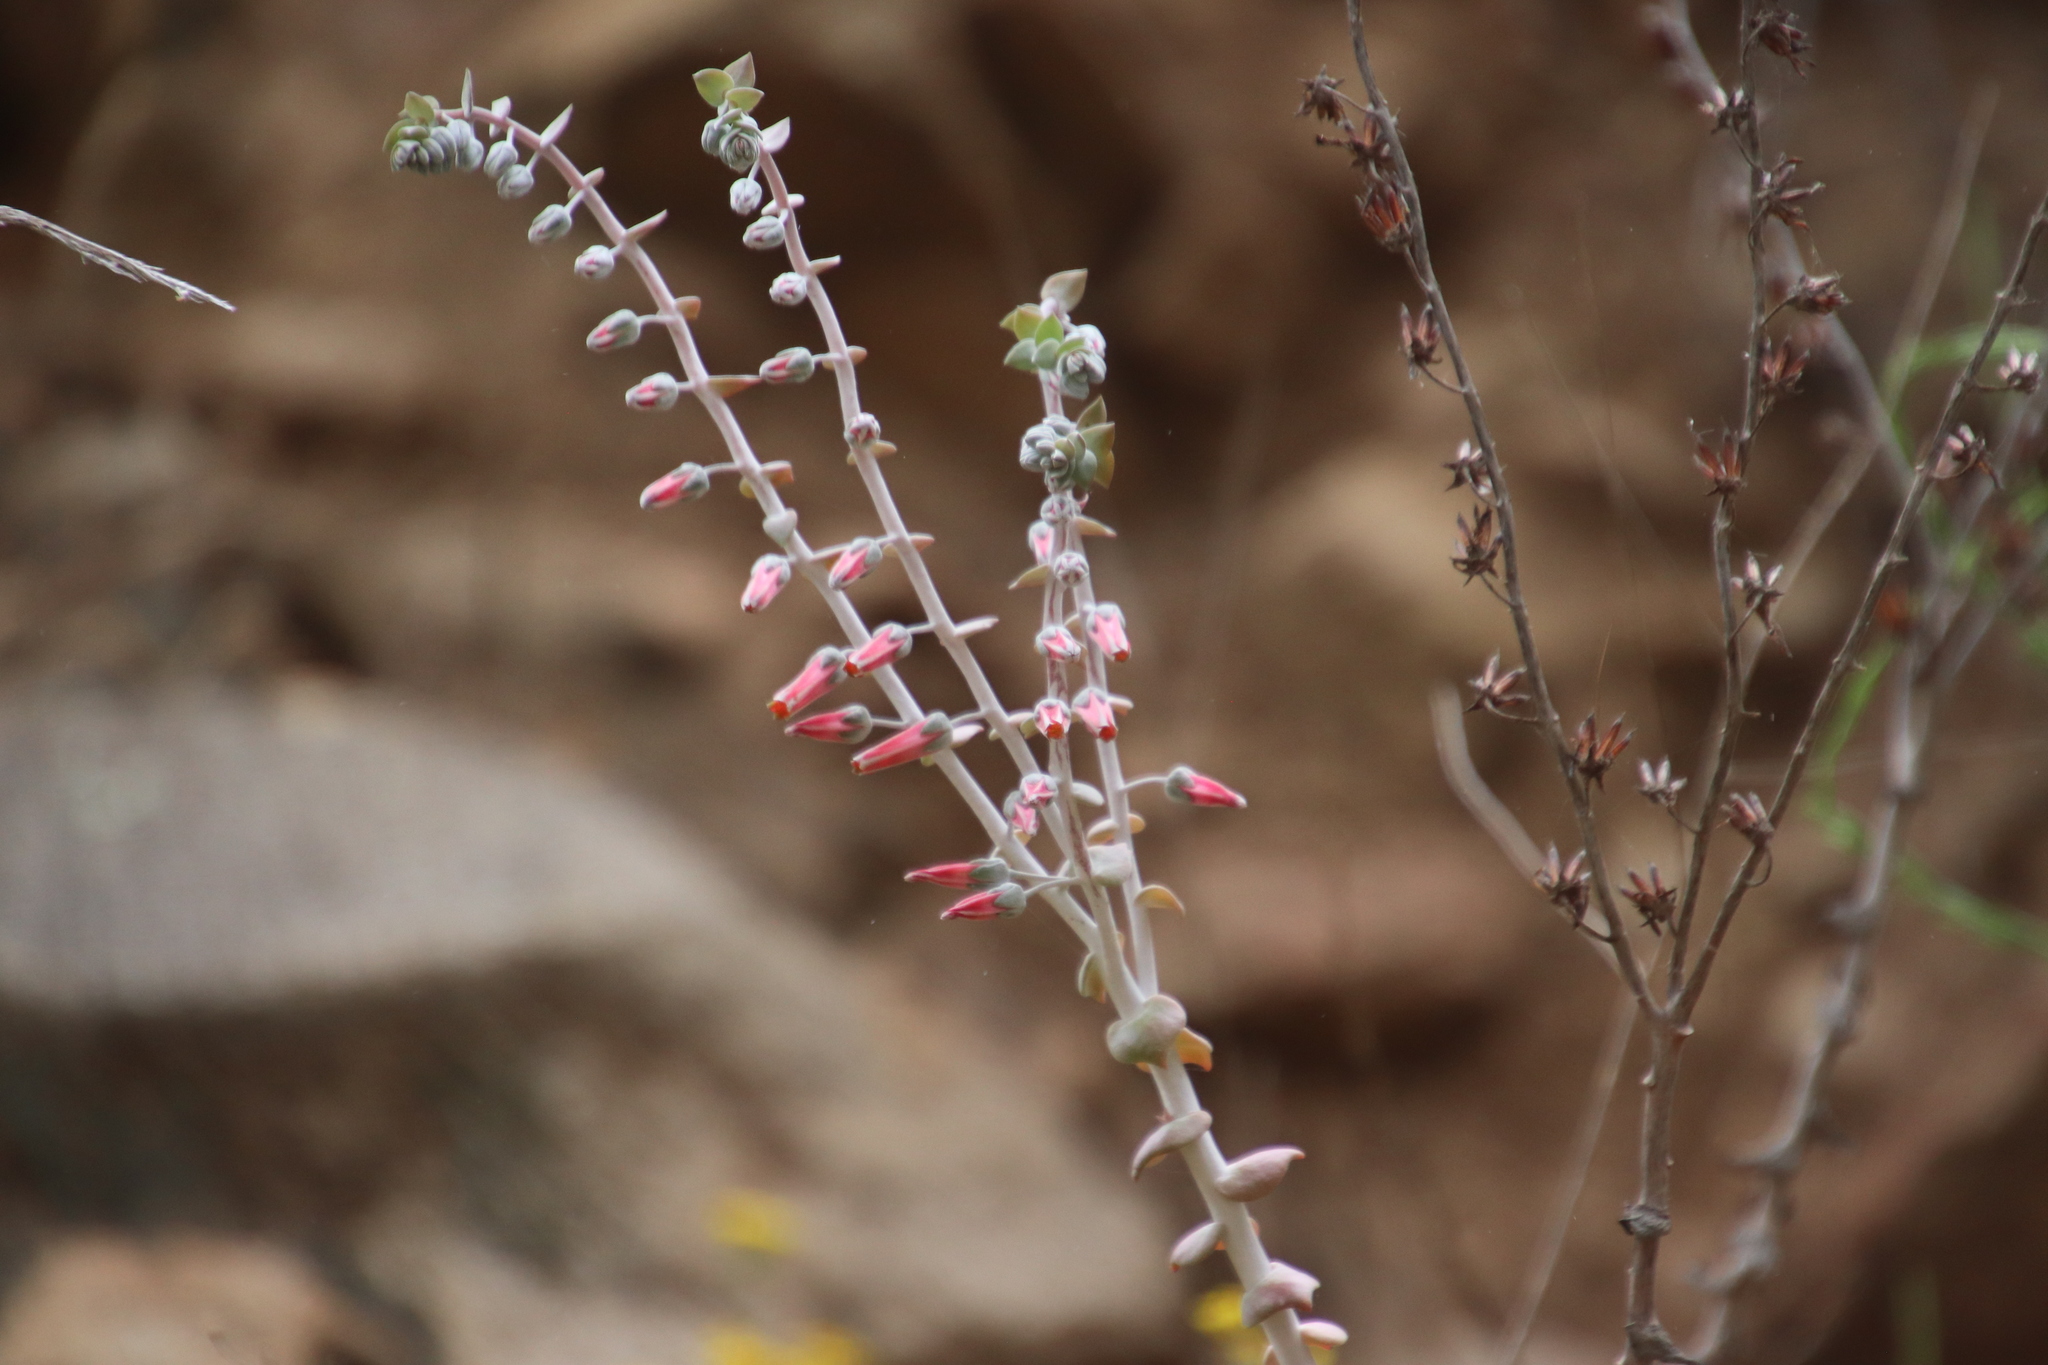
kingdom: Plantae
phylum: Tracheophyta
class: Magnoliopsida
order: Saxifragales
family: Crassulaceae
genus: Dudleya
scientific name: Dudleya pulverulenta
